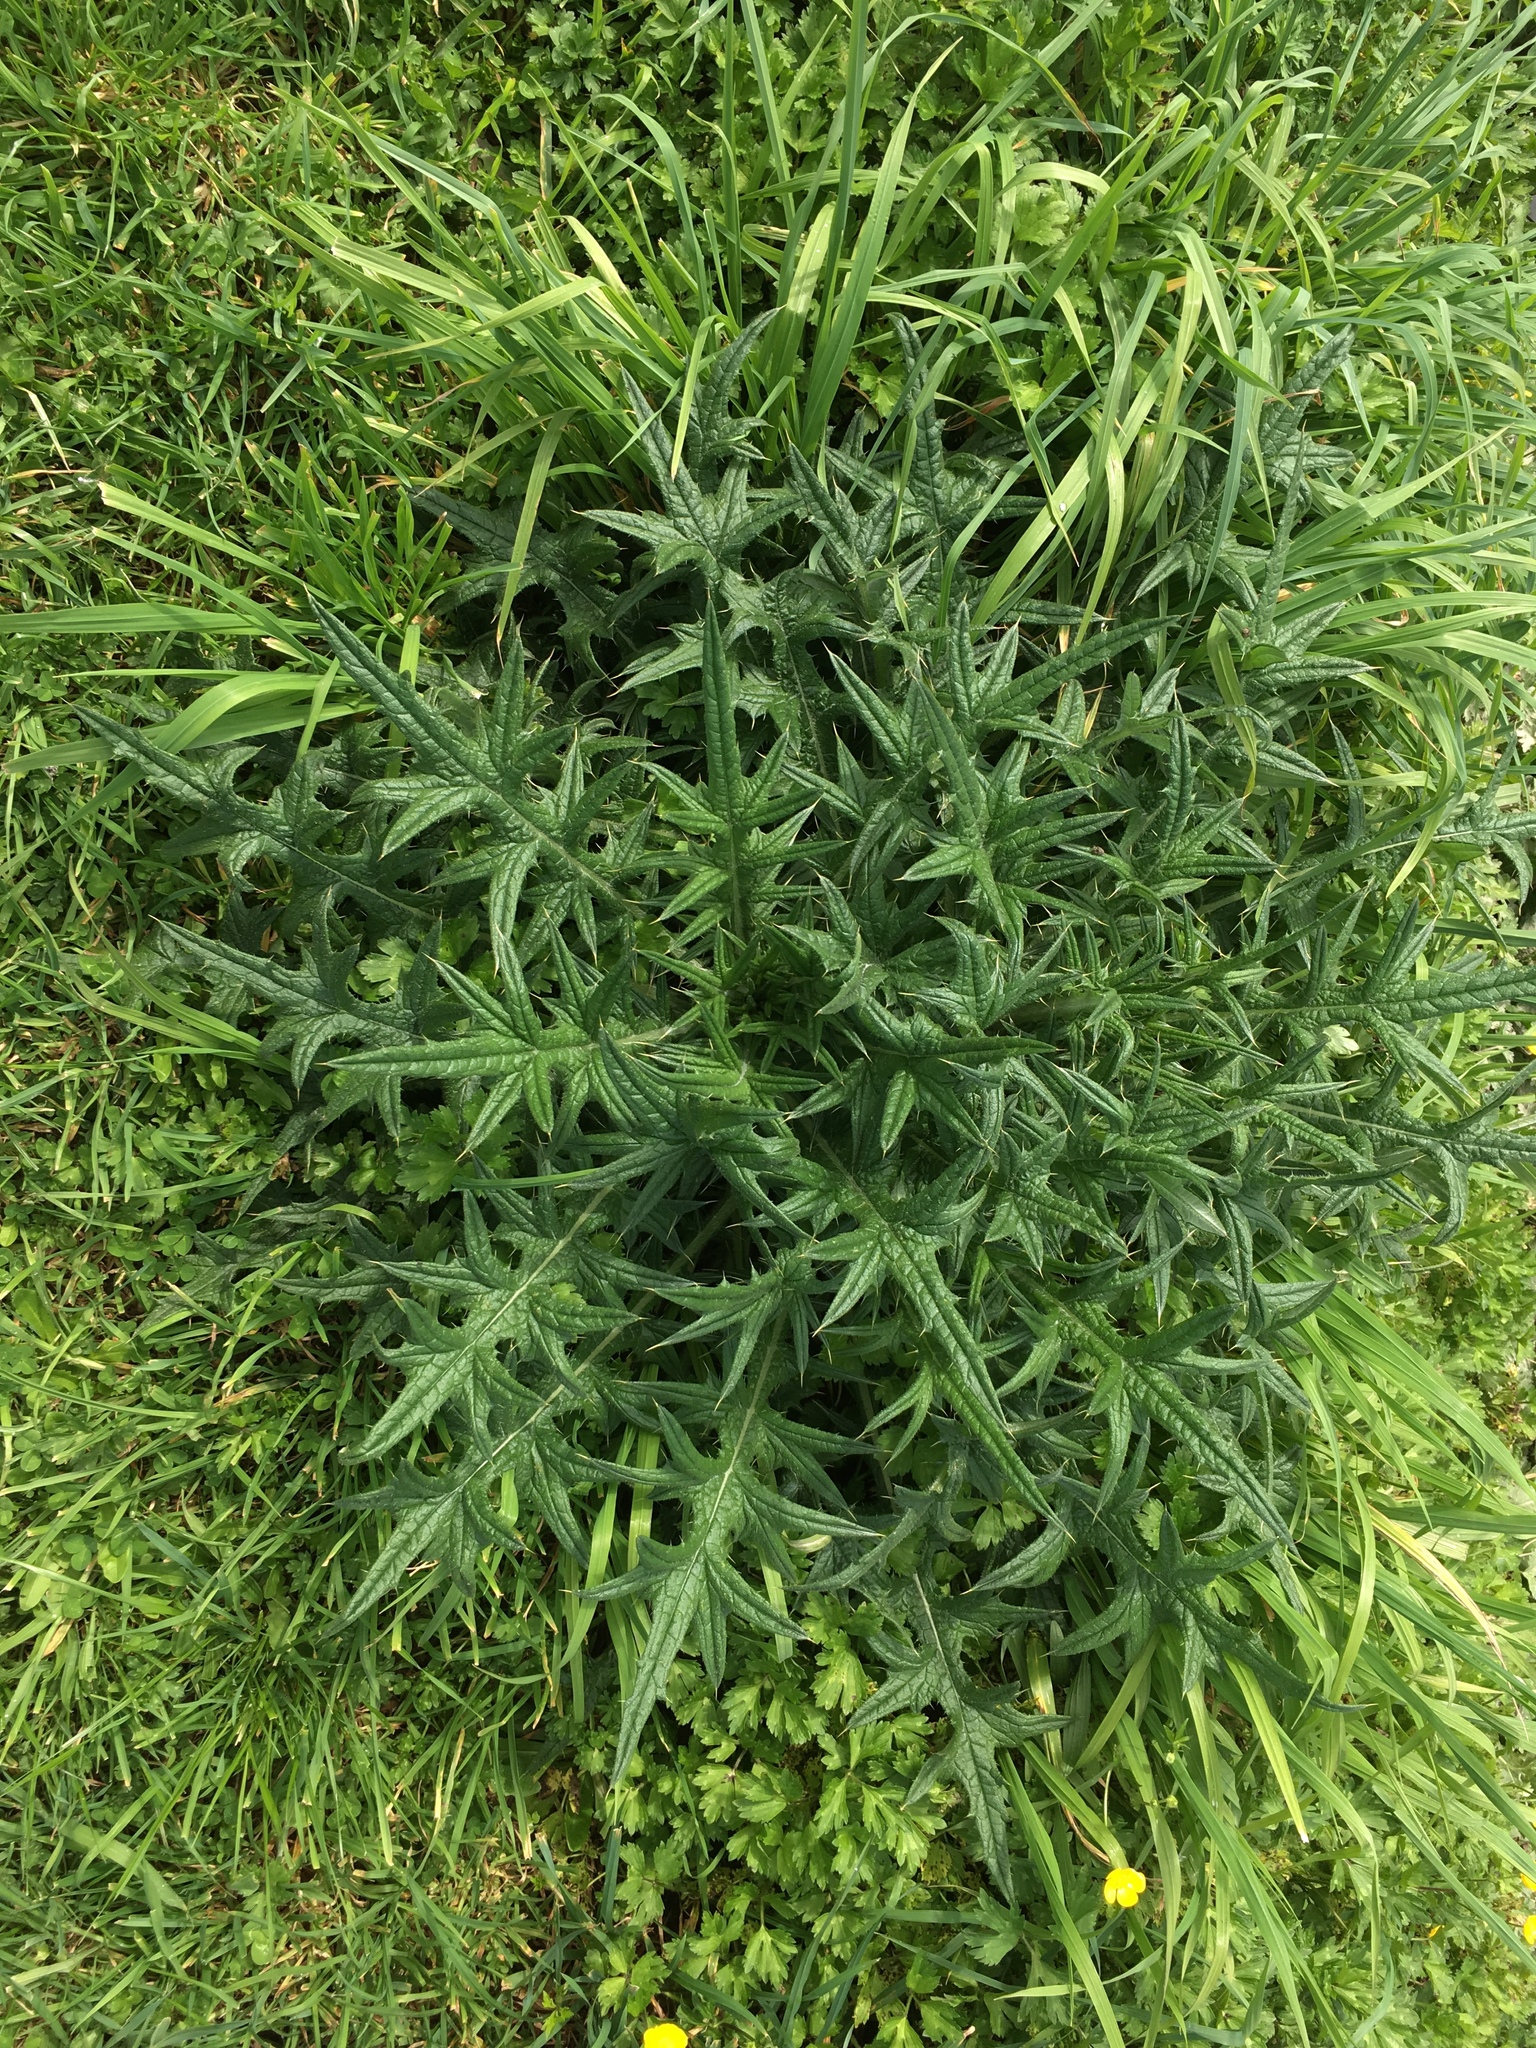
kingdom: Plantae
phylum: Tracheophyta
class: Magnoliopsida
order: Asterales
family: Asteraceae
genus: Cirsium
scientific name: Cirsium vulgare
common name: Bull thistle
